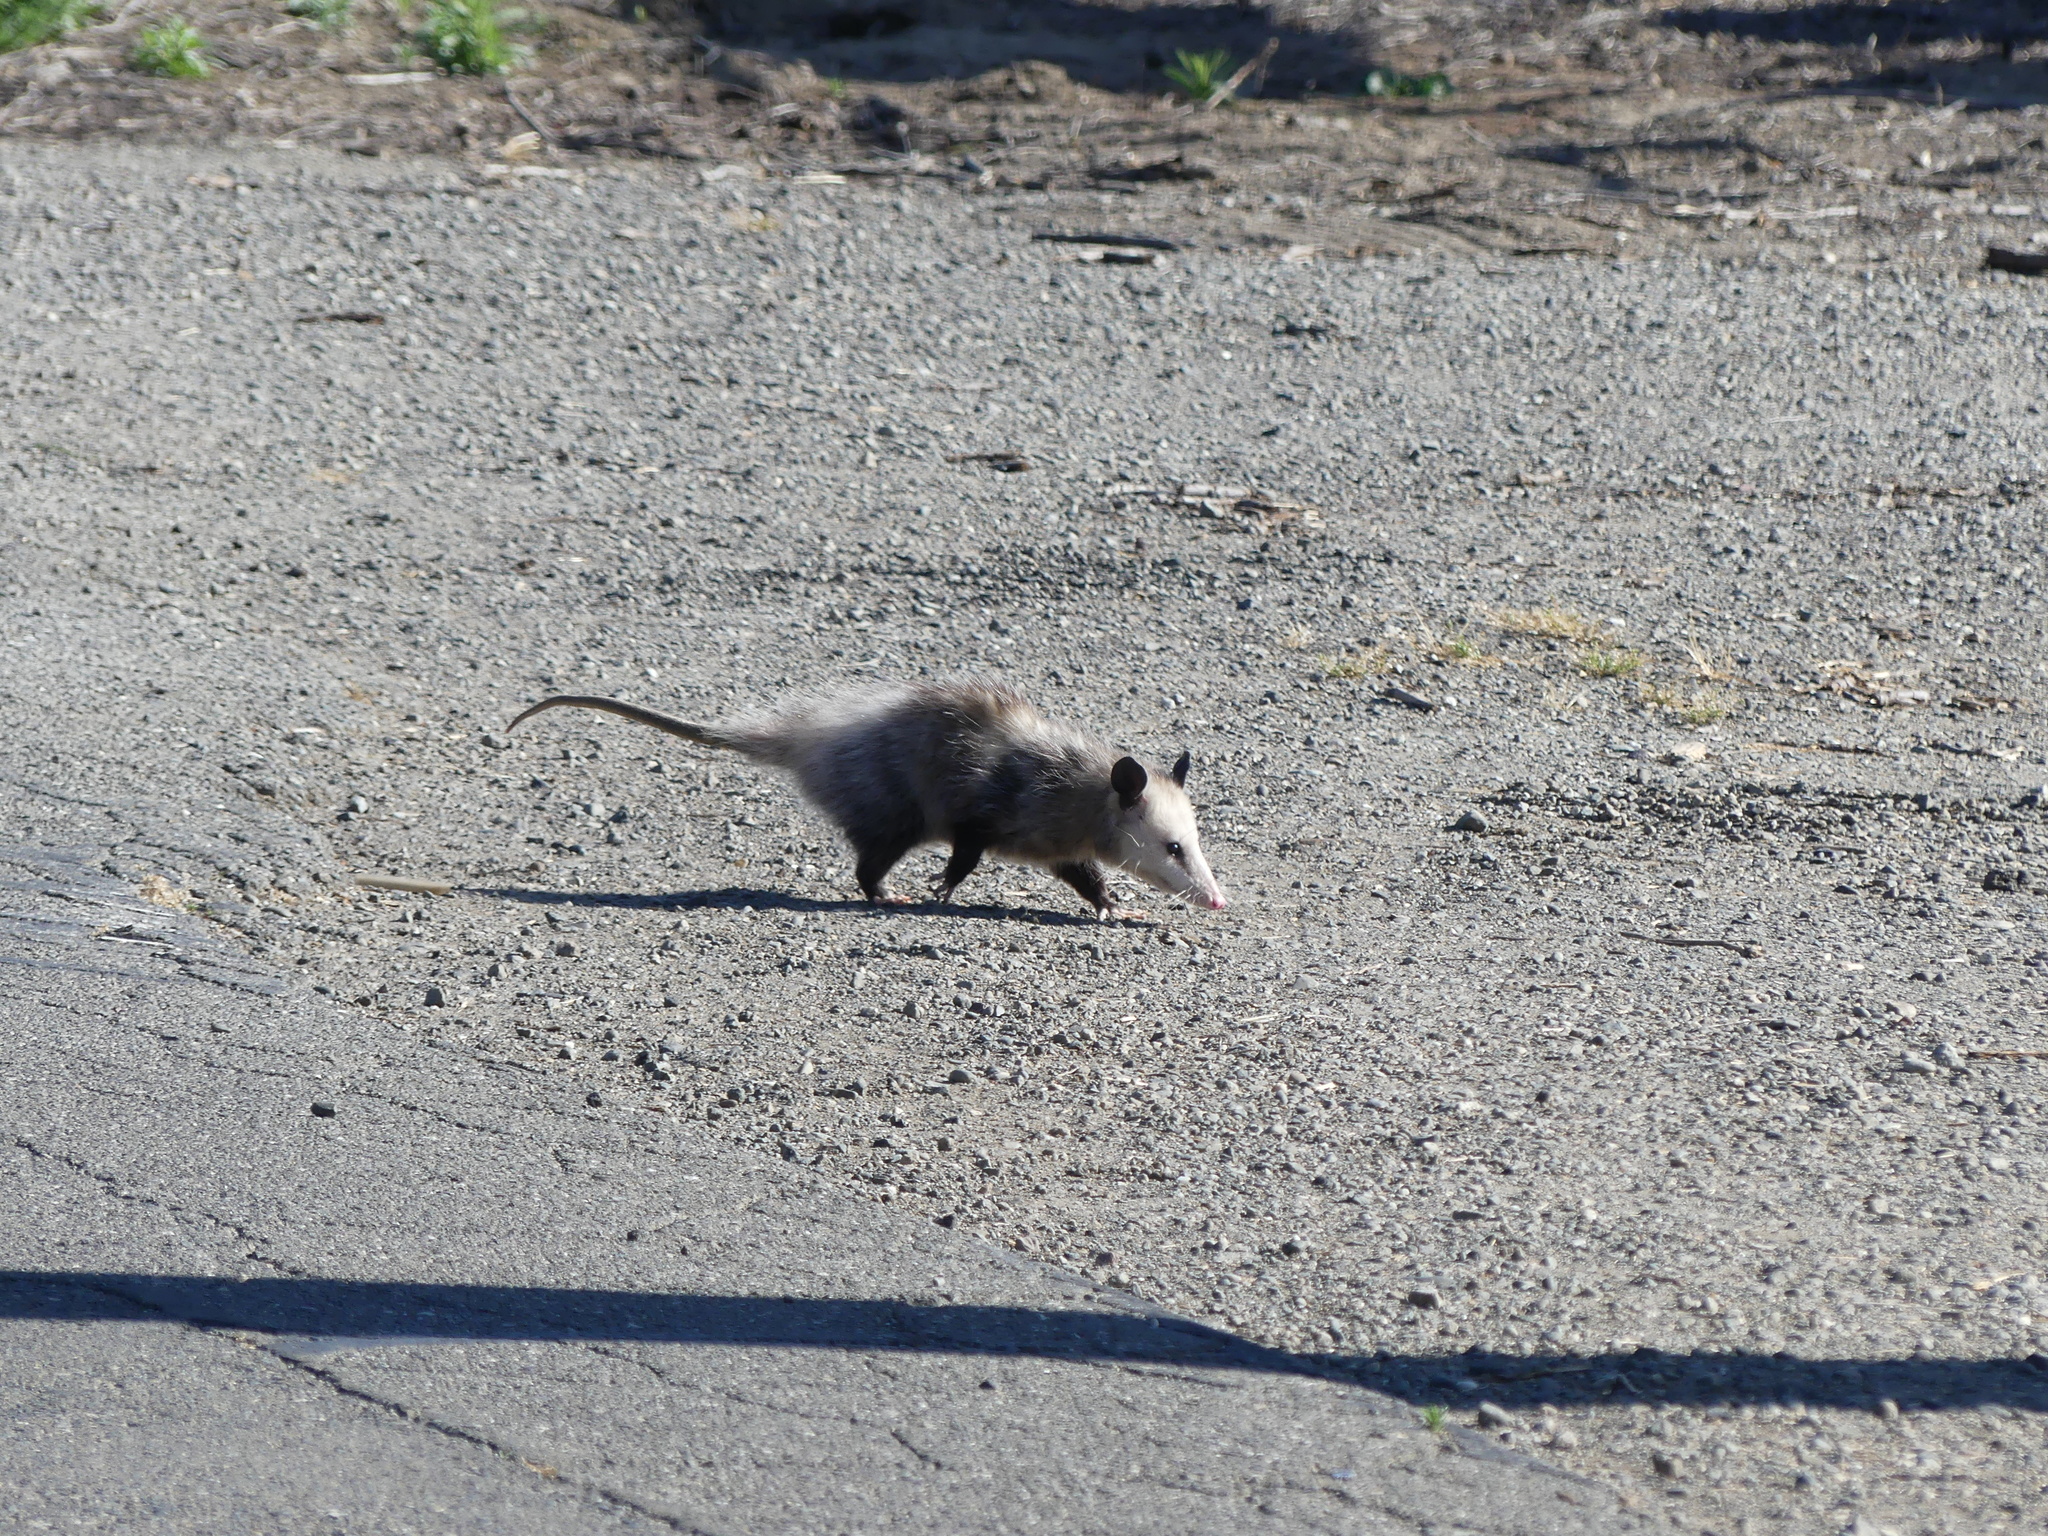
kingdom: Animalia
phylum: Chordata
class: Mammalia
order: Didelphimorphia
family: Didelphidae
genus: Didelphis
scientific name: Didelphis virginiana
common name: Virginia opossum
